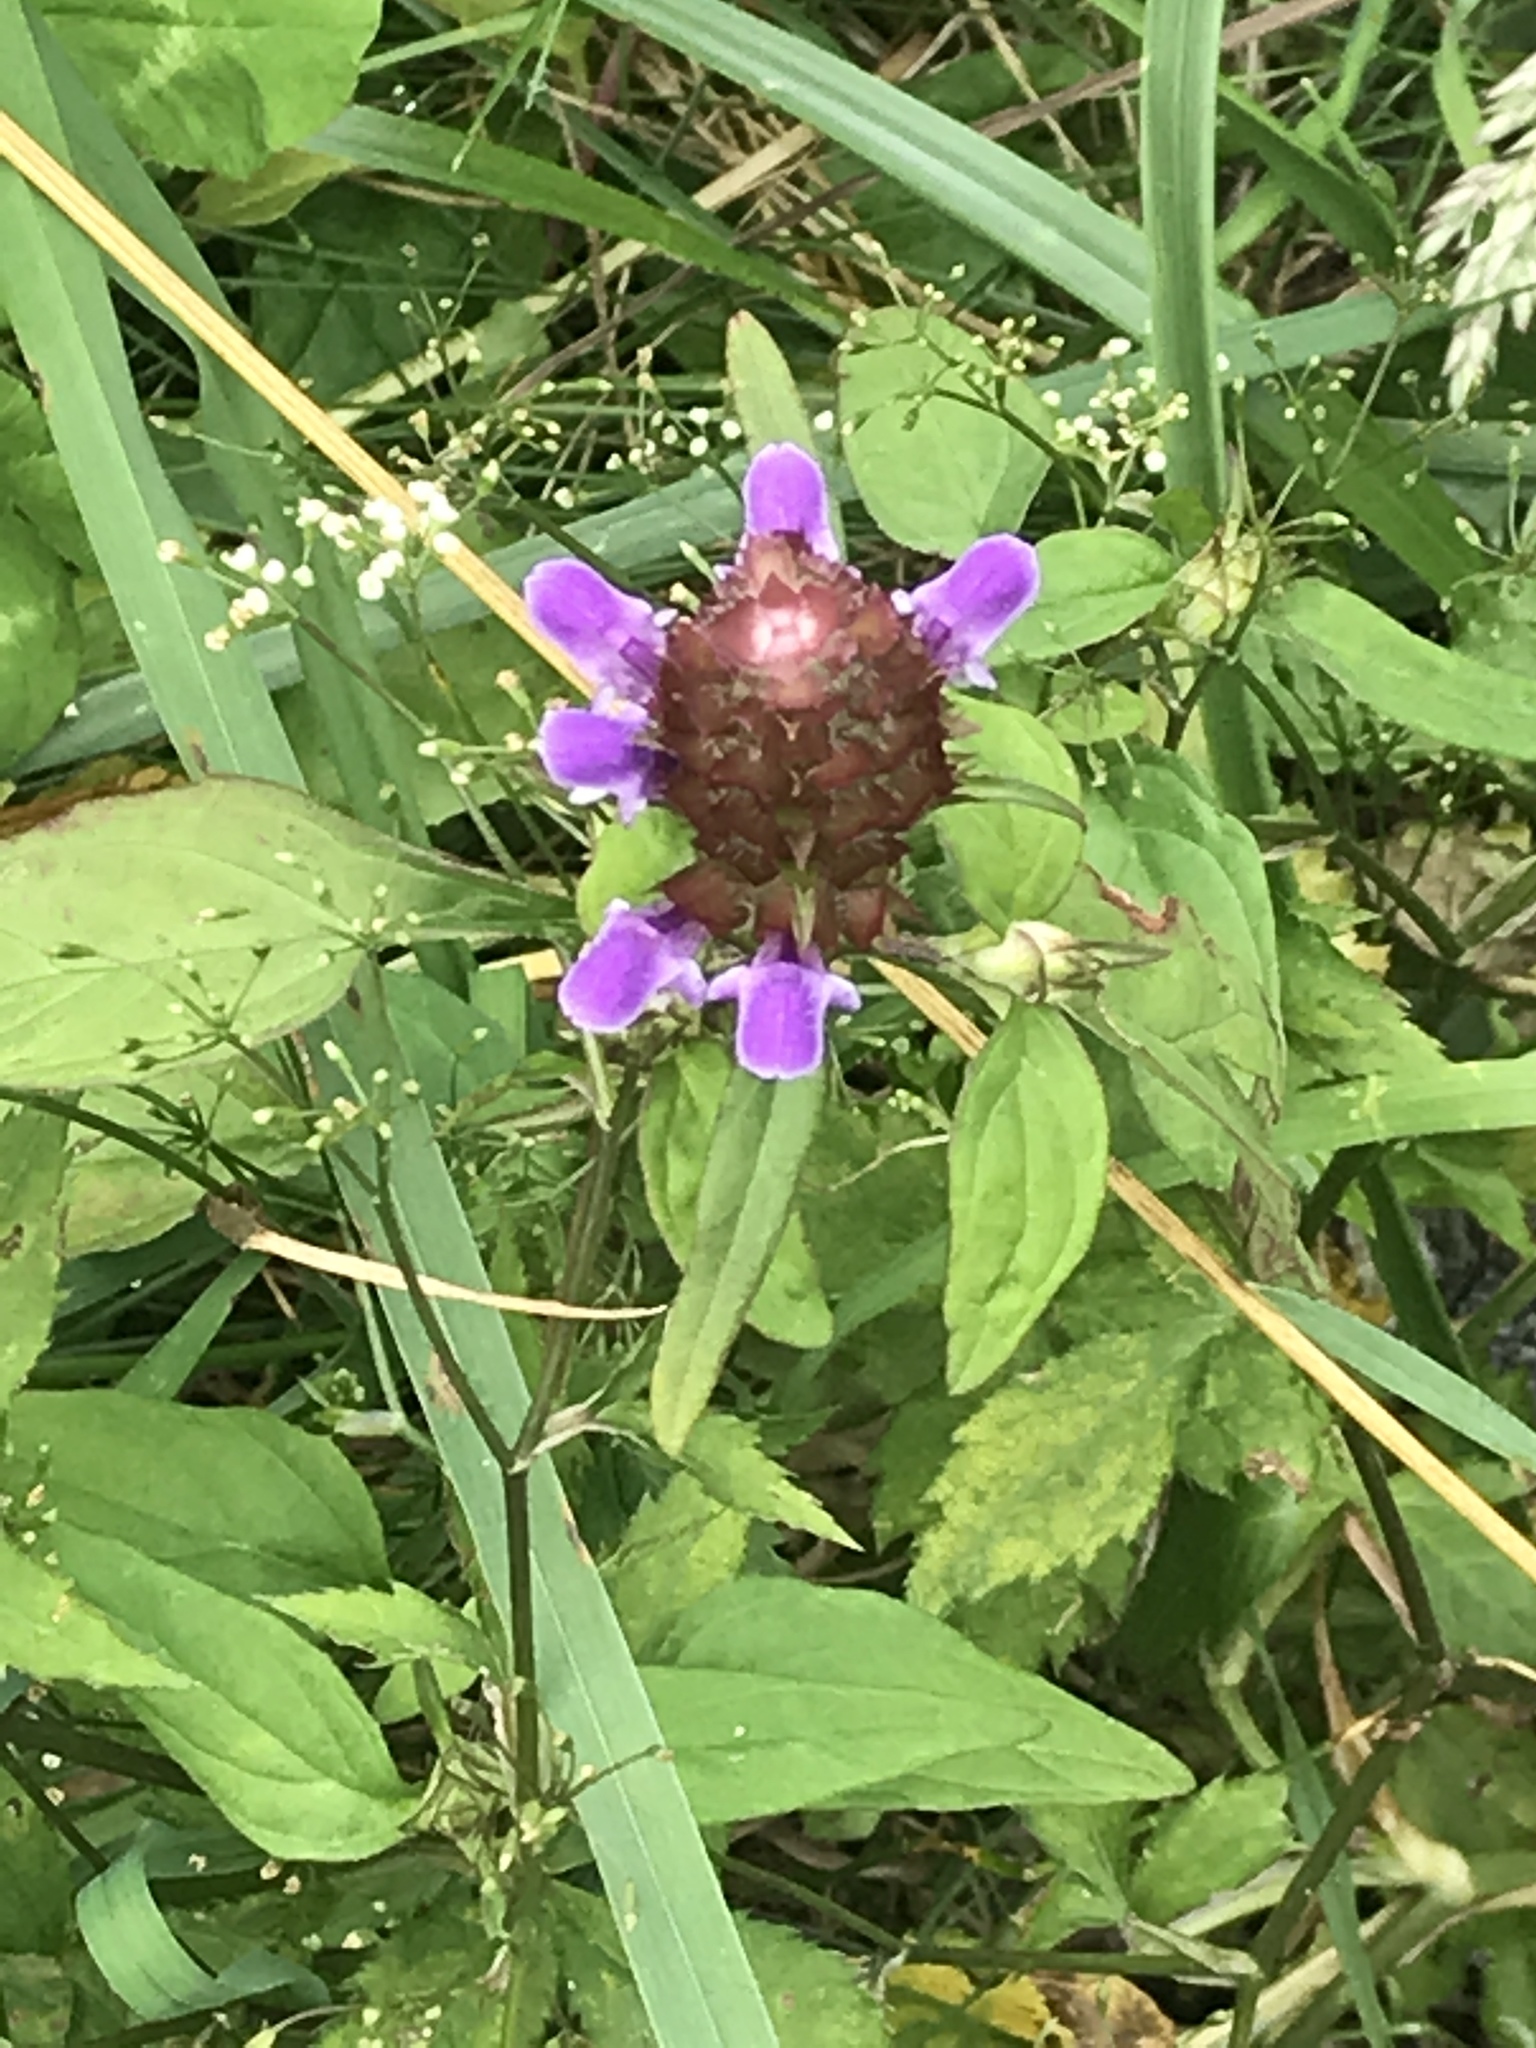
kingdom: Plantae
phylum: Tracheophyta
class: Magnoliopsida
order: Lamiales
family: Lamiaceae
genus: Prunella
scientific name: Prunella vulgaris
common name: Heal-all
